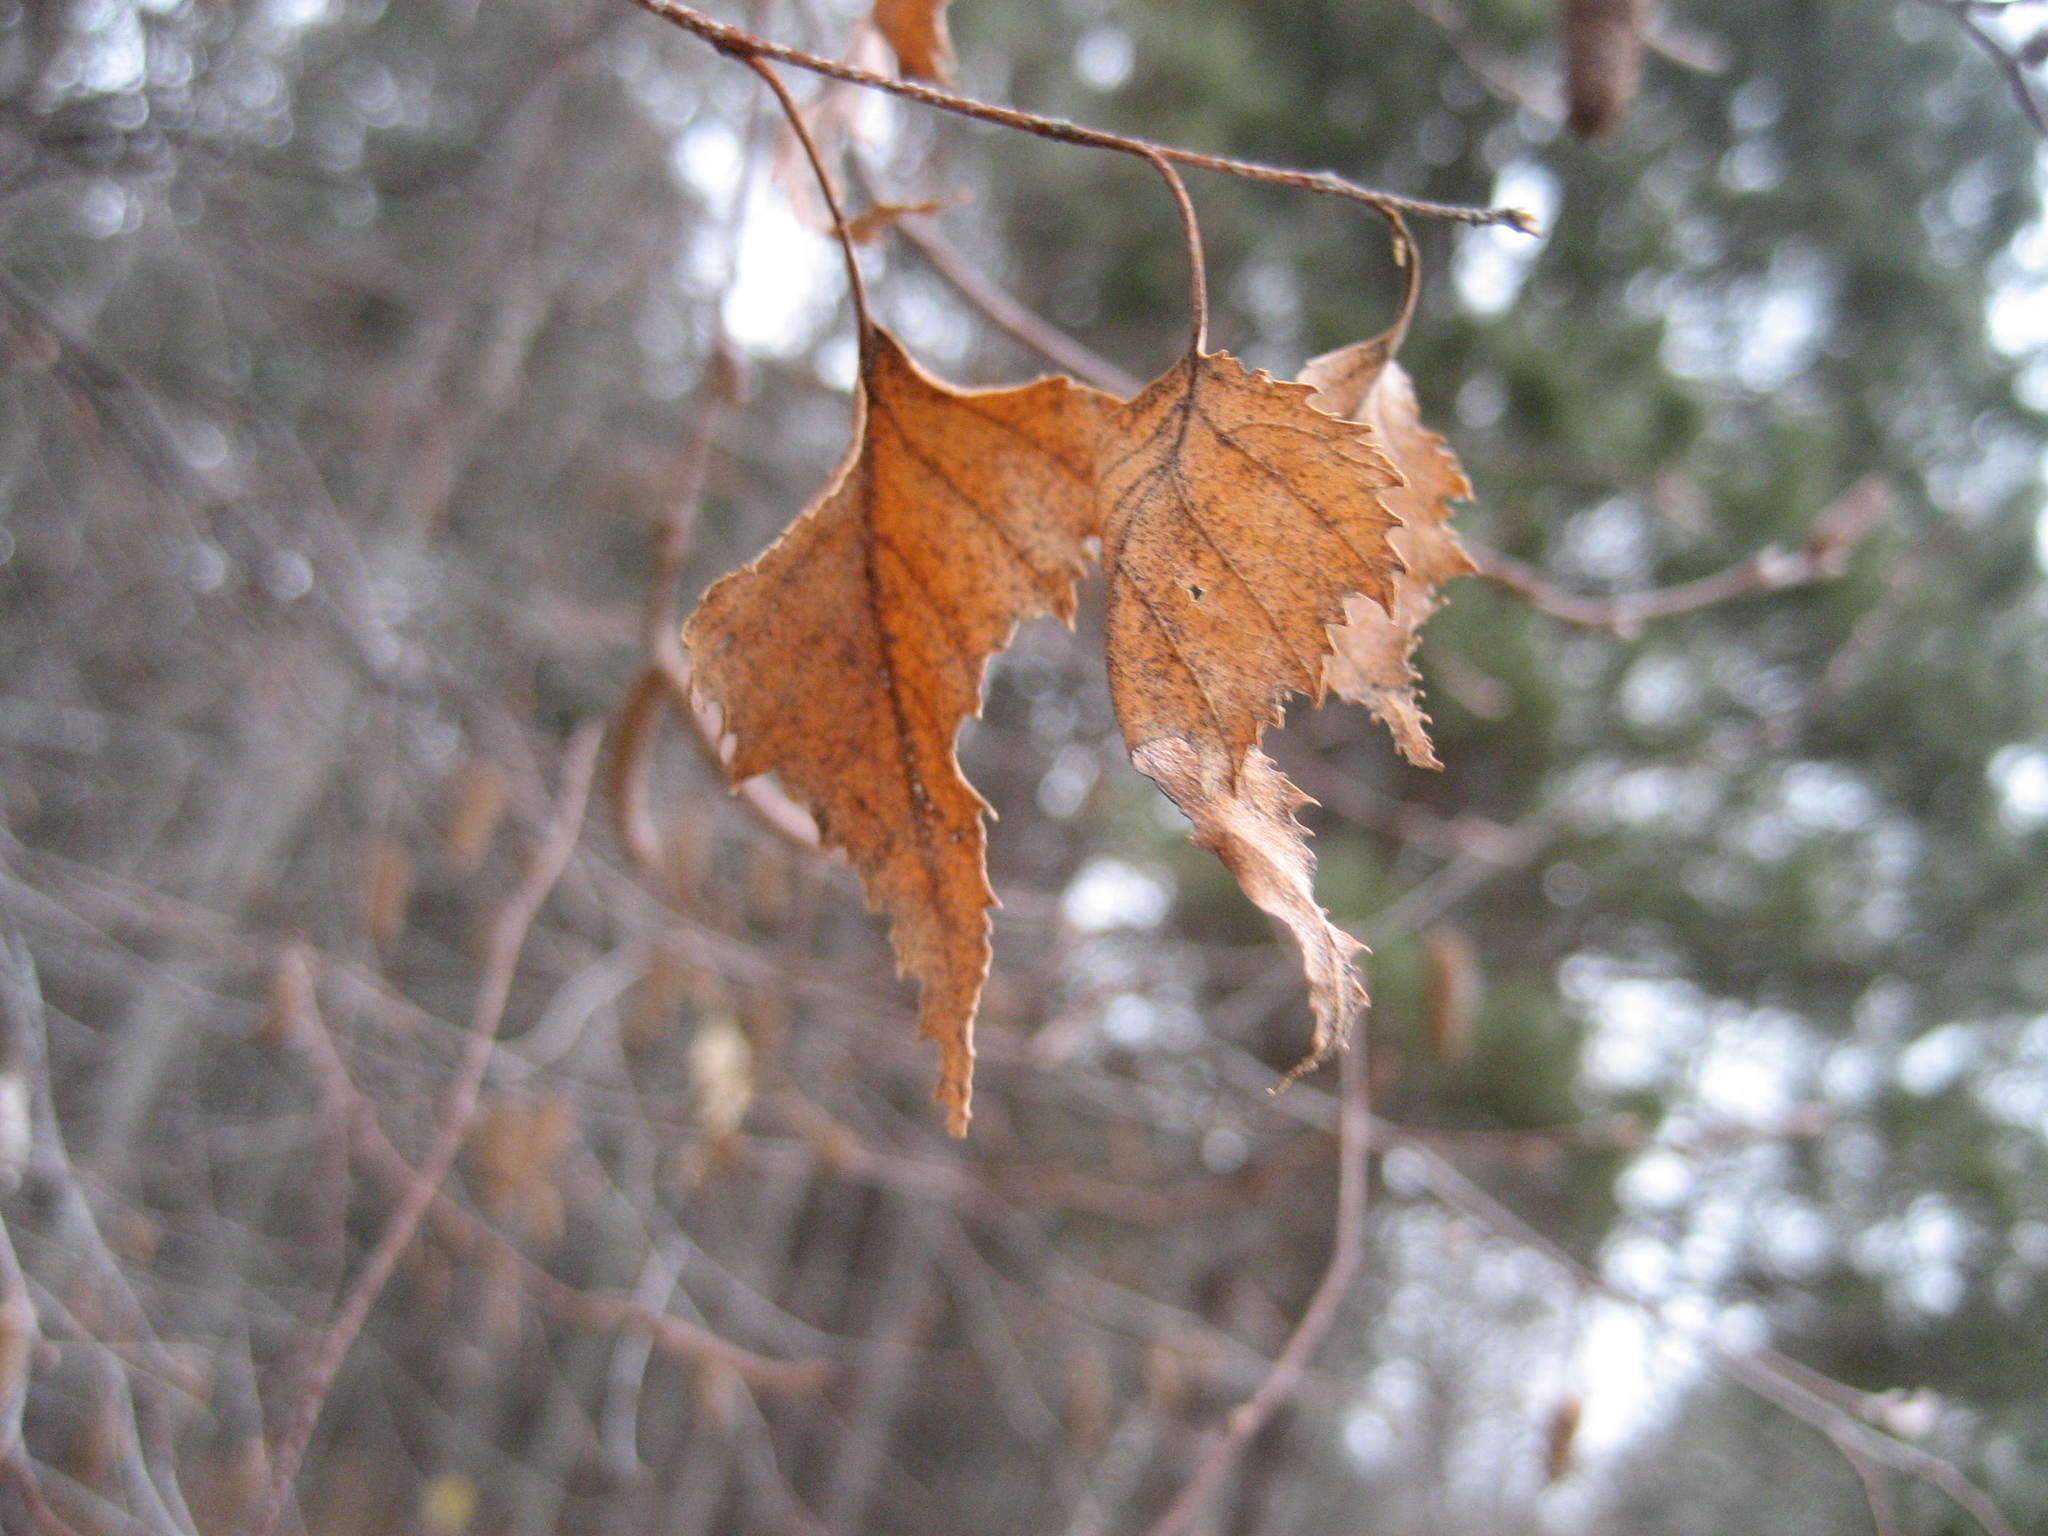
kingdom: Plantae
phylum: Tracheophyta
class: Magnoliopsida
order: Fagales
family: Betulaceae
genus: Betula
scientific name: Betula populifolia
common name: Fire birch
